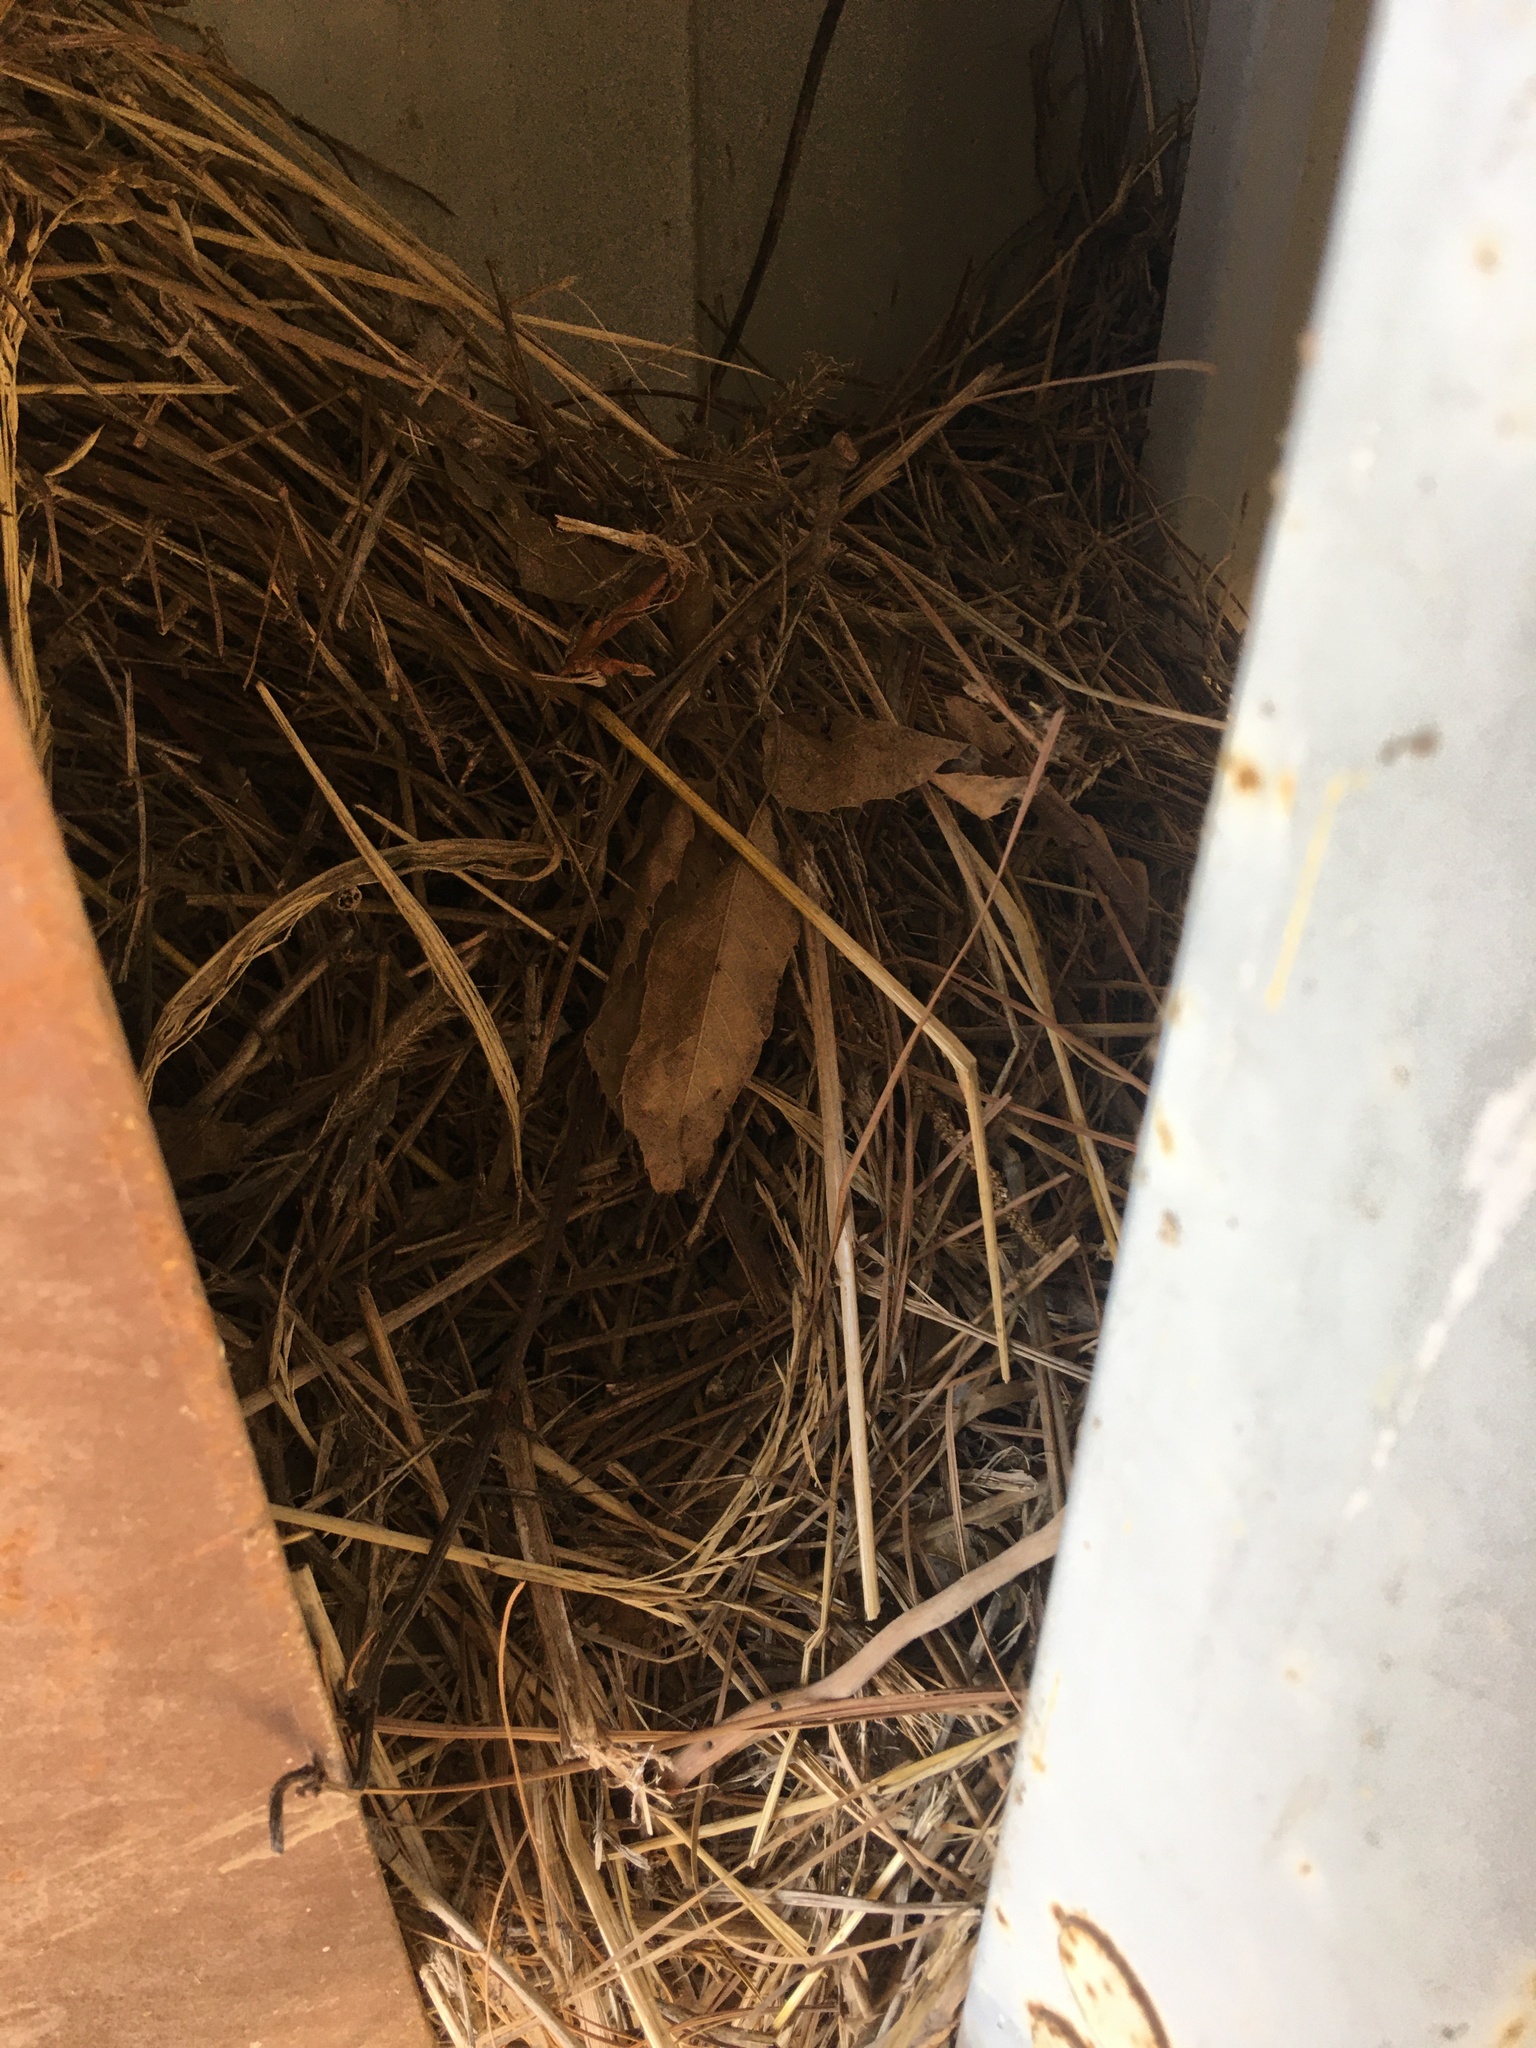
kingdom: Animalia
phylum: Chordata
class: Aves
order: Passeriformes
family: Sturnidae
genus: Sturnus
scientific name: Sturnus vulgaris
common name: Common starling
